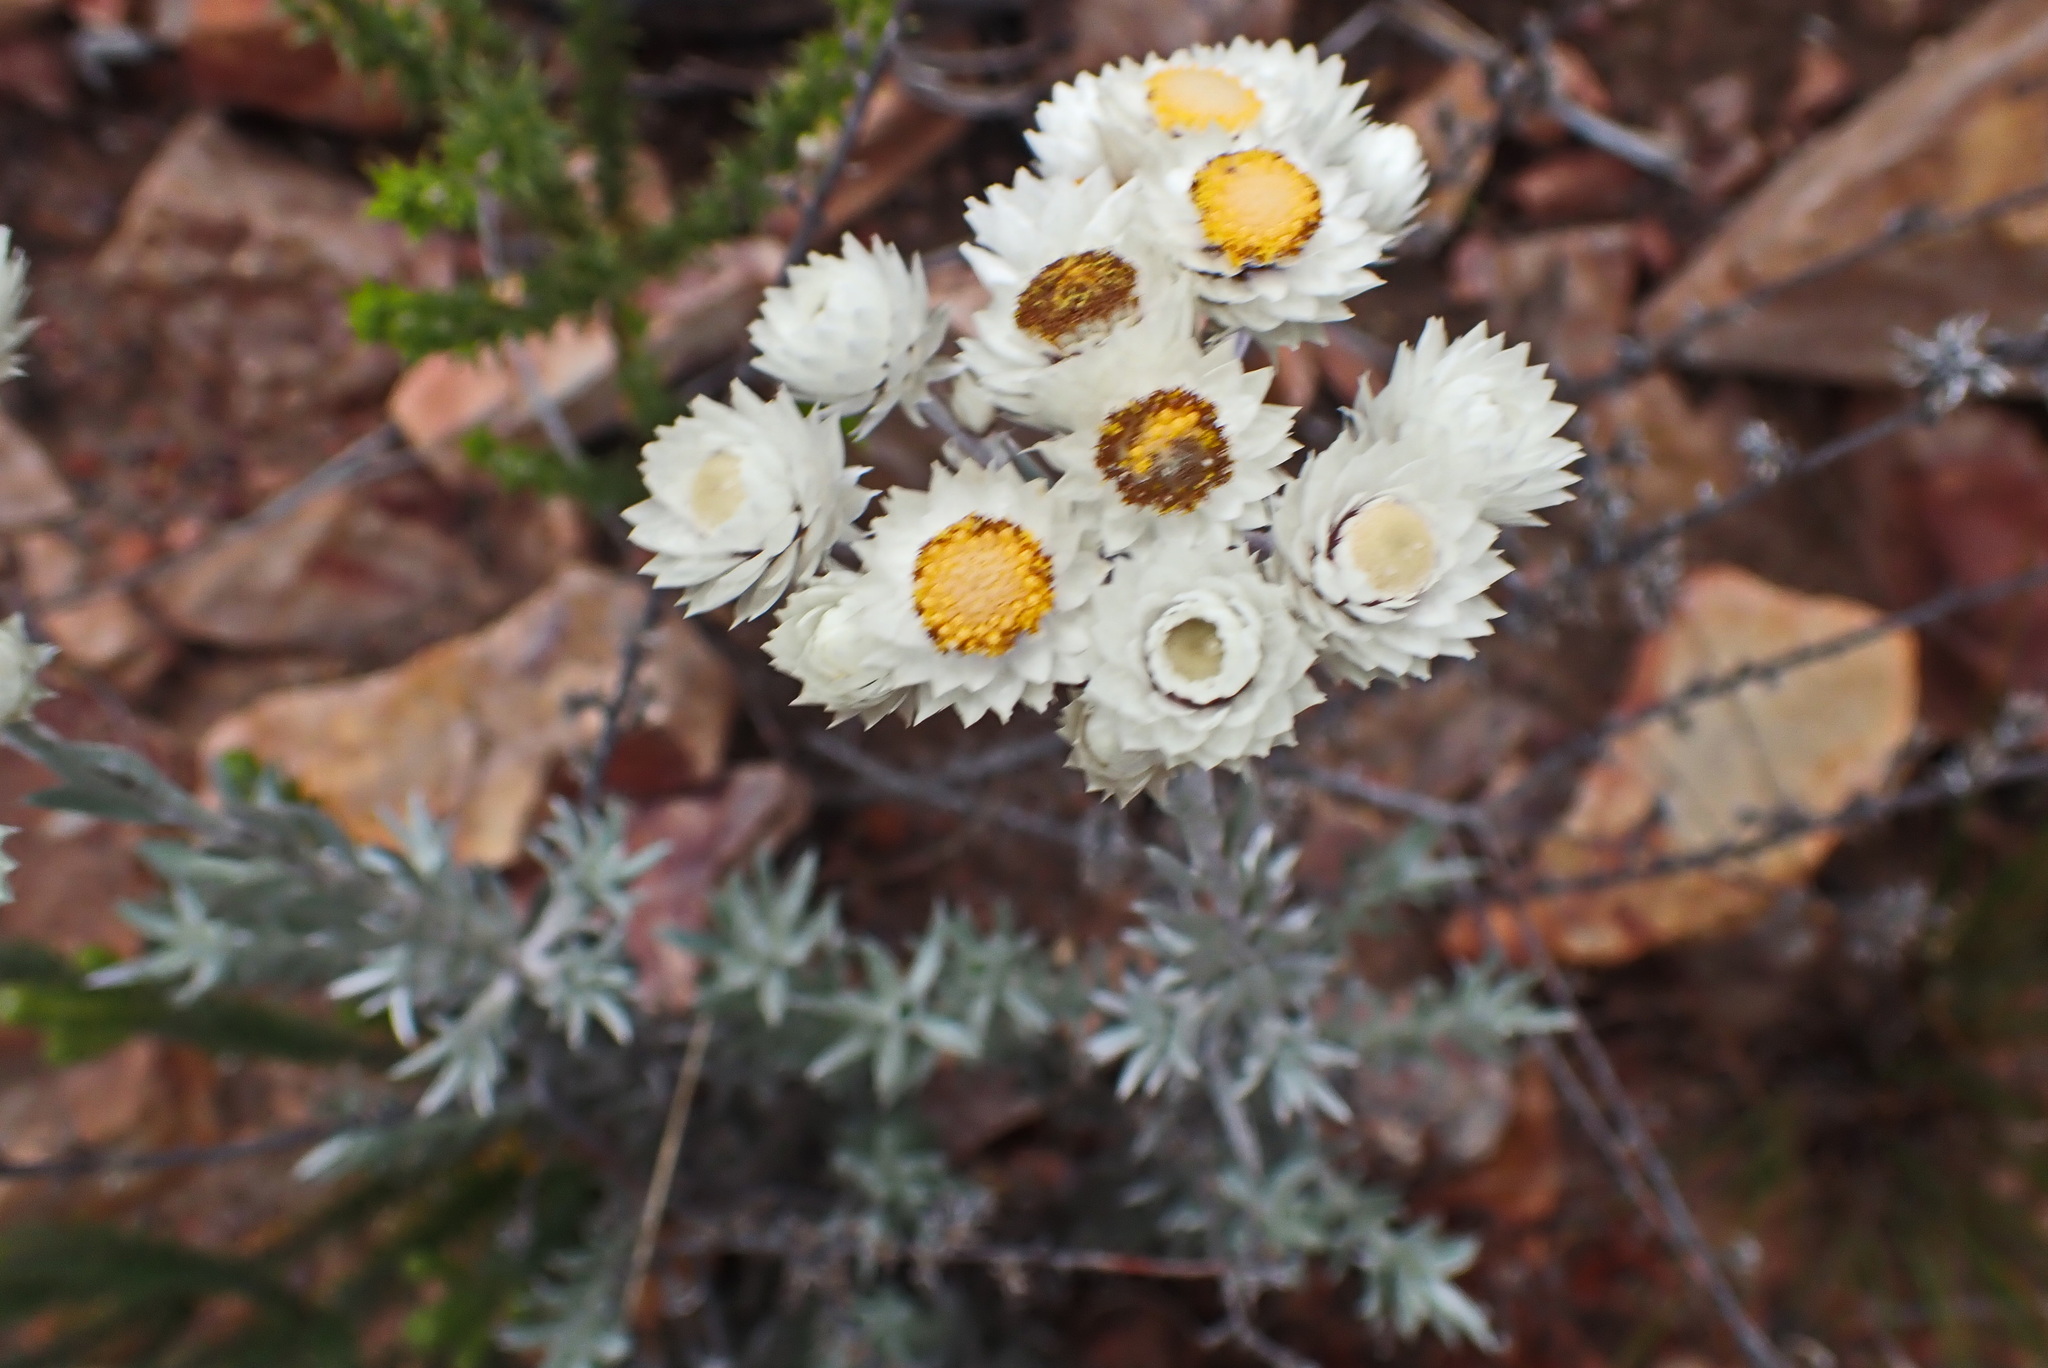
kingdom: Plantae
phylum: Tracheophyta
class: Magnoliopsida
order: Asterales
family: Asteraceae
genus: Achyranthemum
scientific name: Achyranthemum paniculatum
